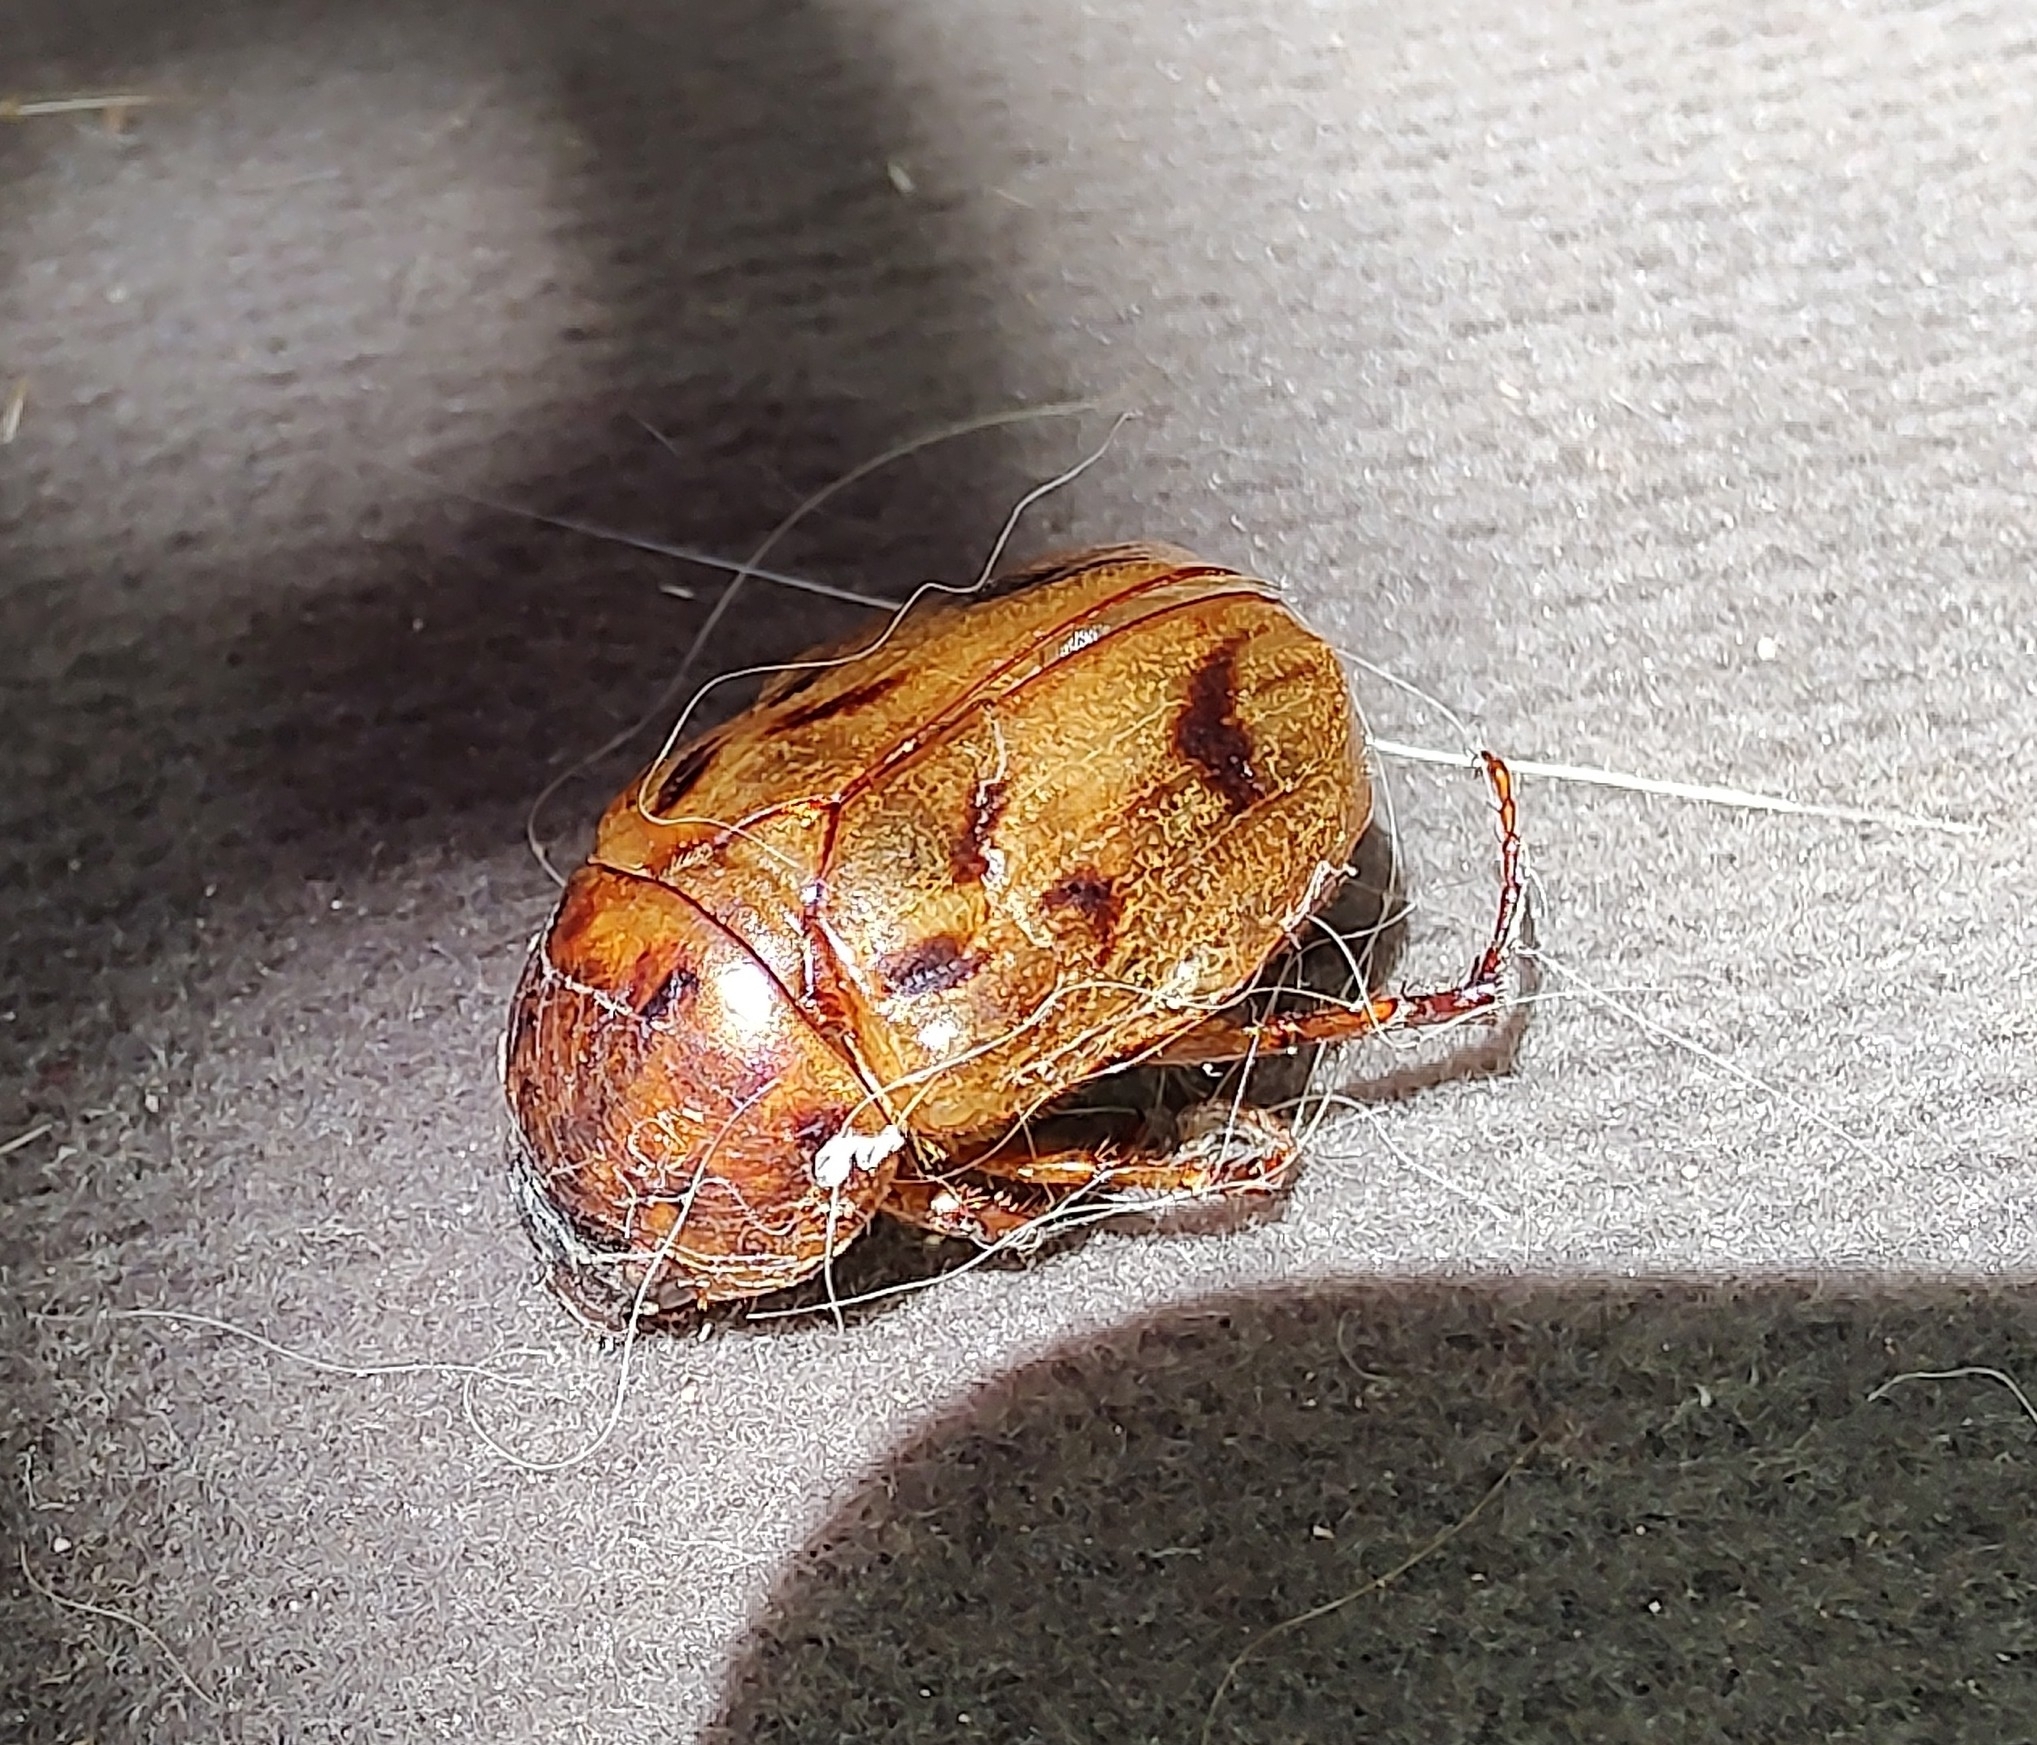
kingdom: Animalia
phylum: Arthropoda
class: Insecta
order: Coleoptera
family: Scarabaeidae
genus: Cyclocephala
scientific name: Cyclocephala lunulata
